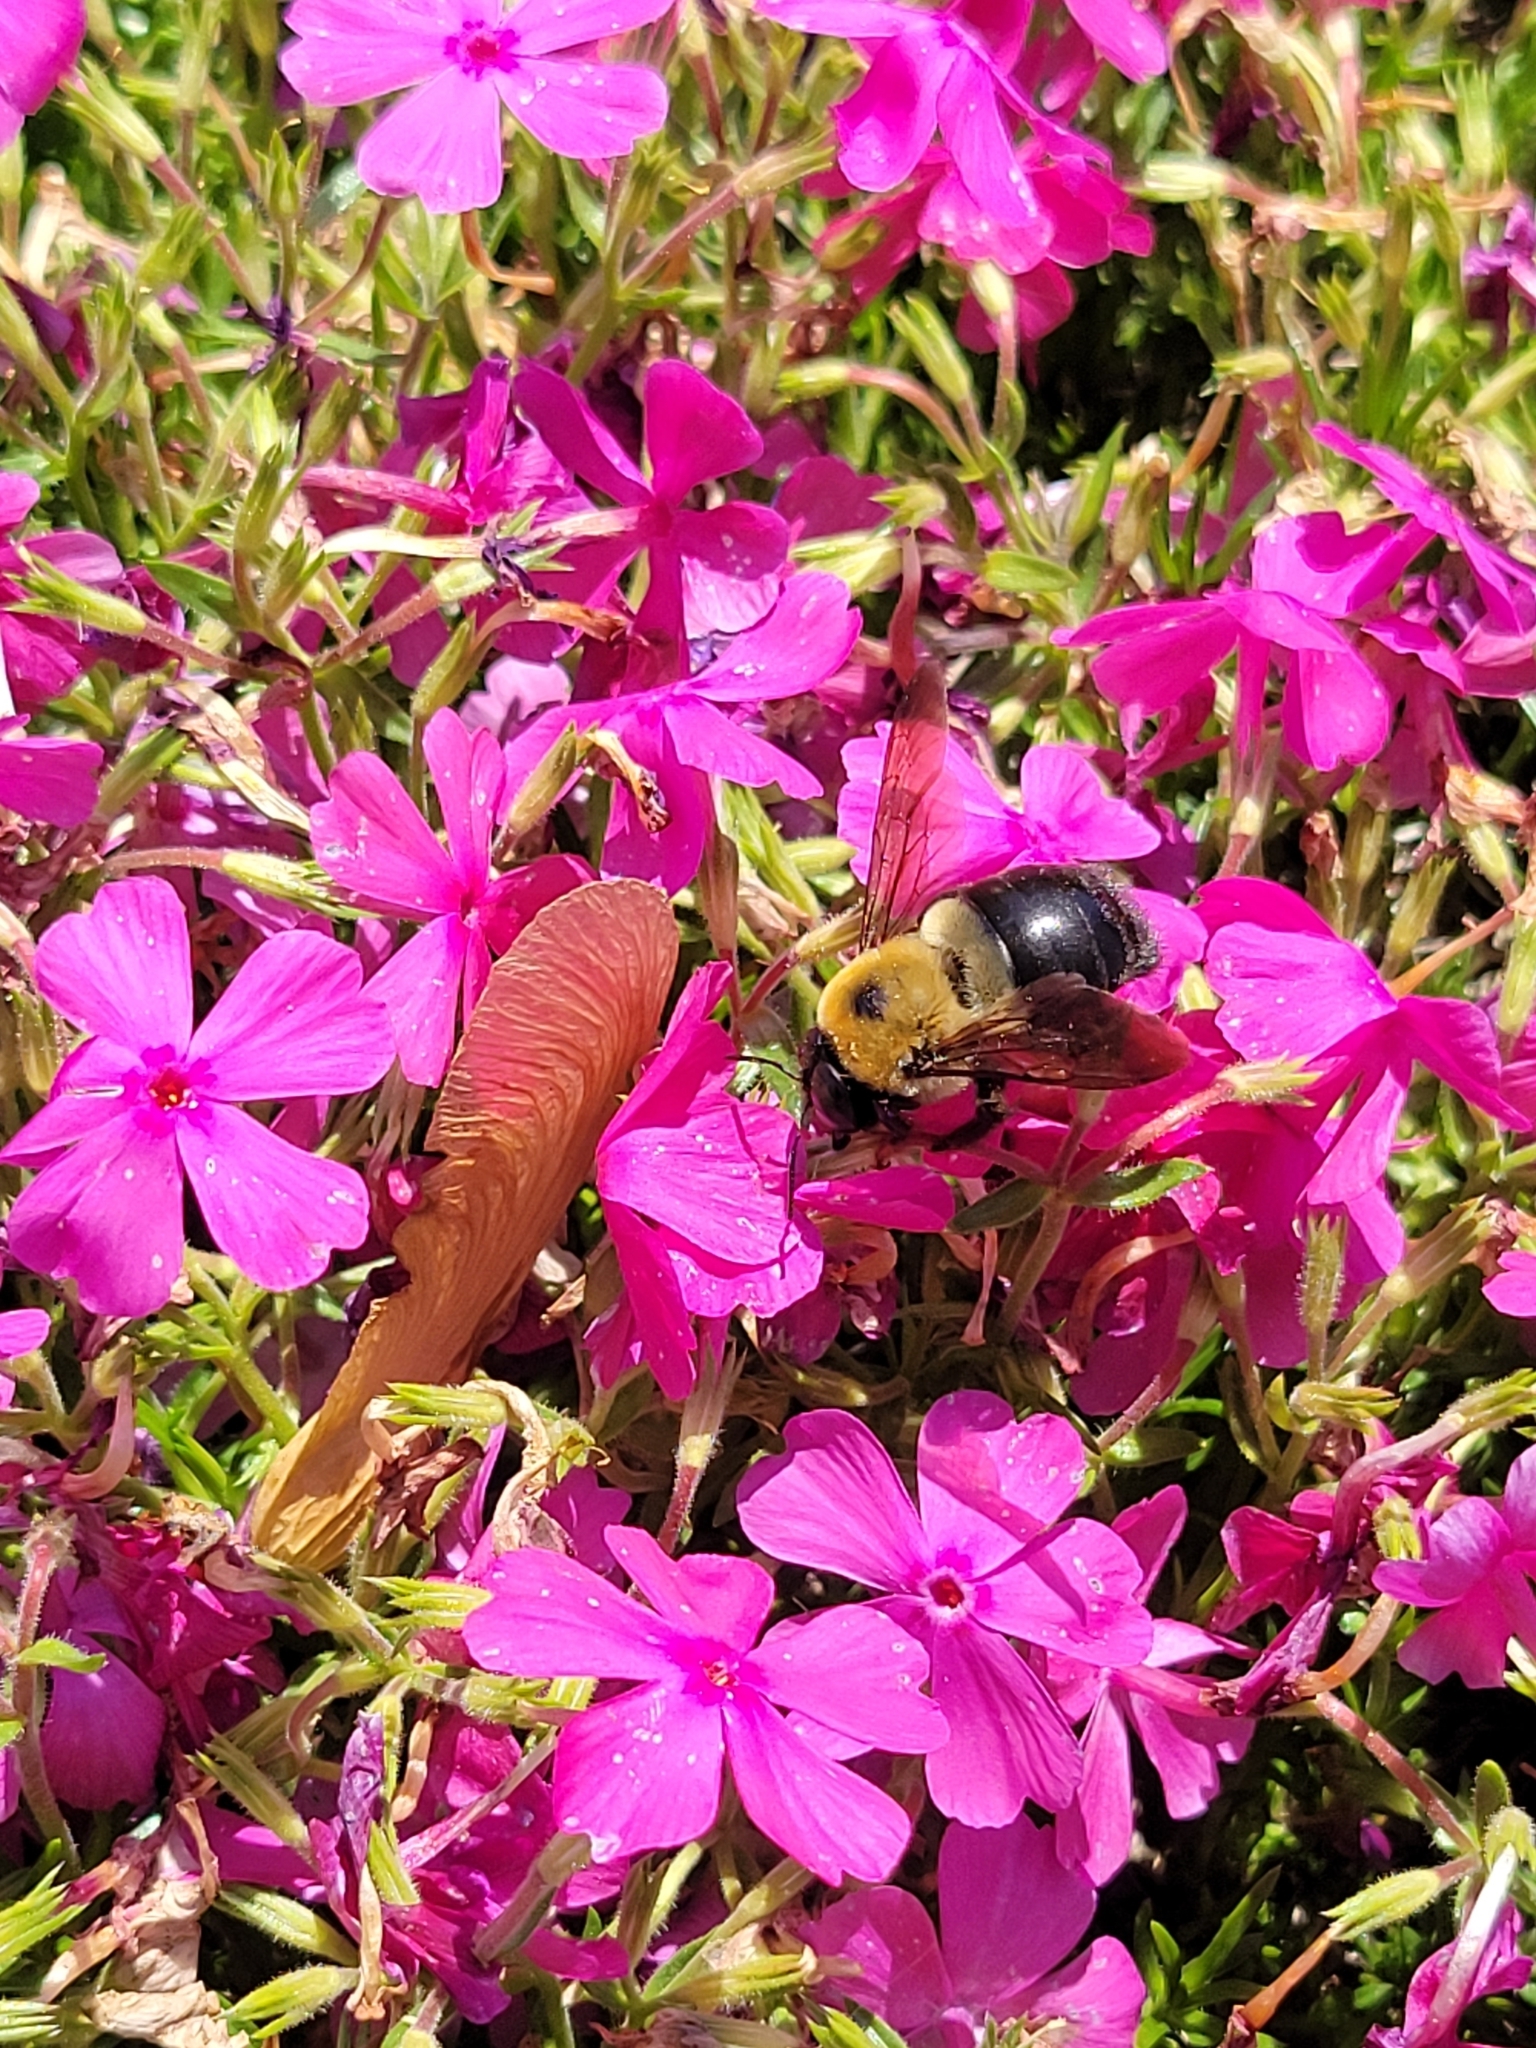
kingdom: Animalia
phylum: Arthropoda
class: Insecta
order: Hymenoptera
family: Apidae
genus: Xylocopa
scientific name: Xylocopa virginica
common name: Carpenter bee
